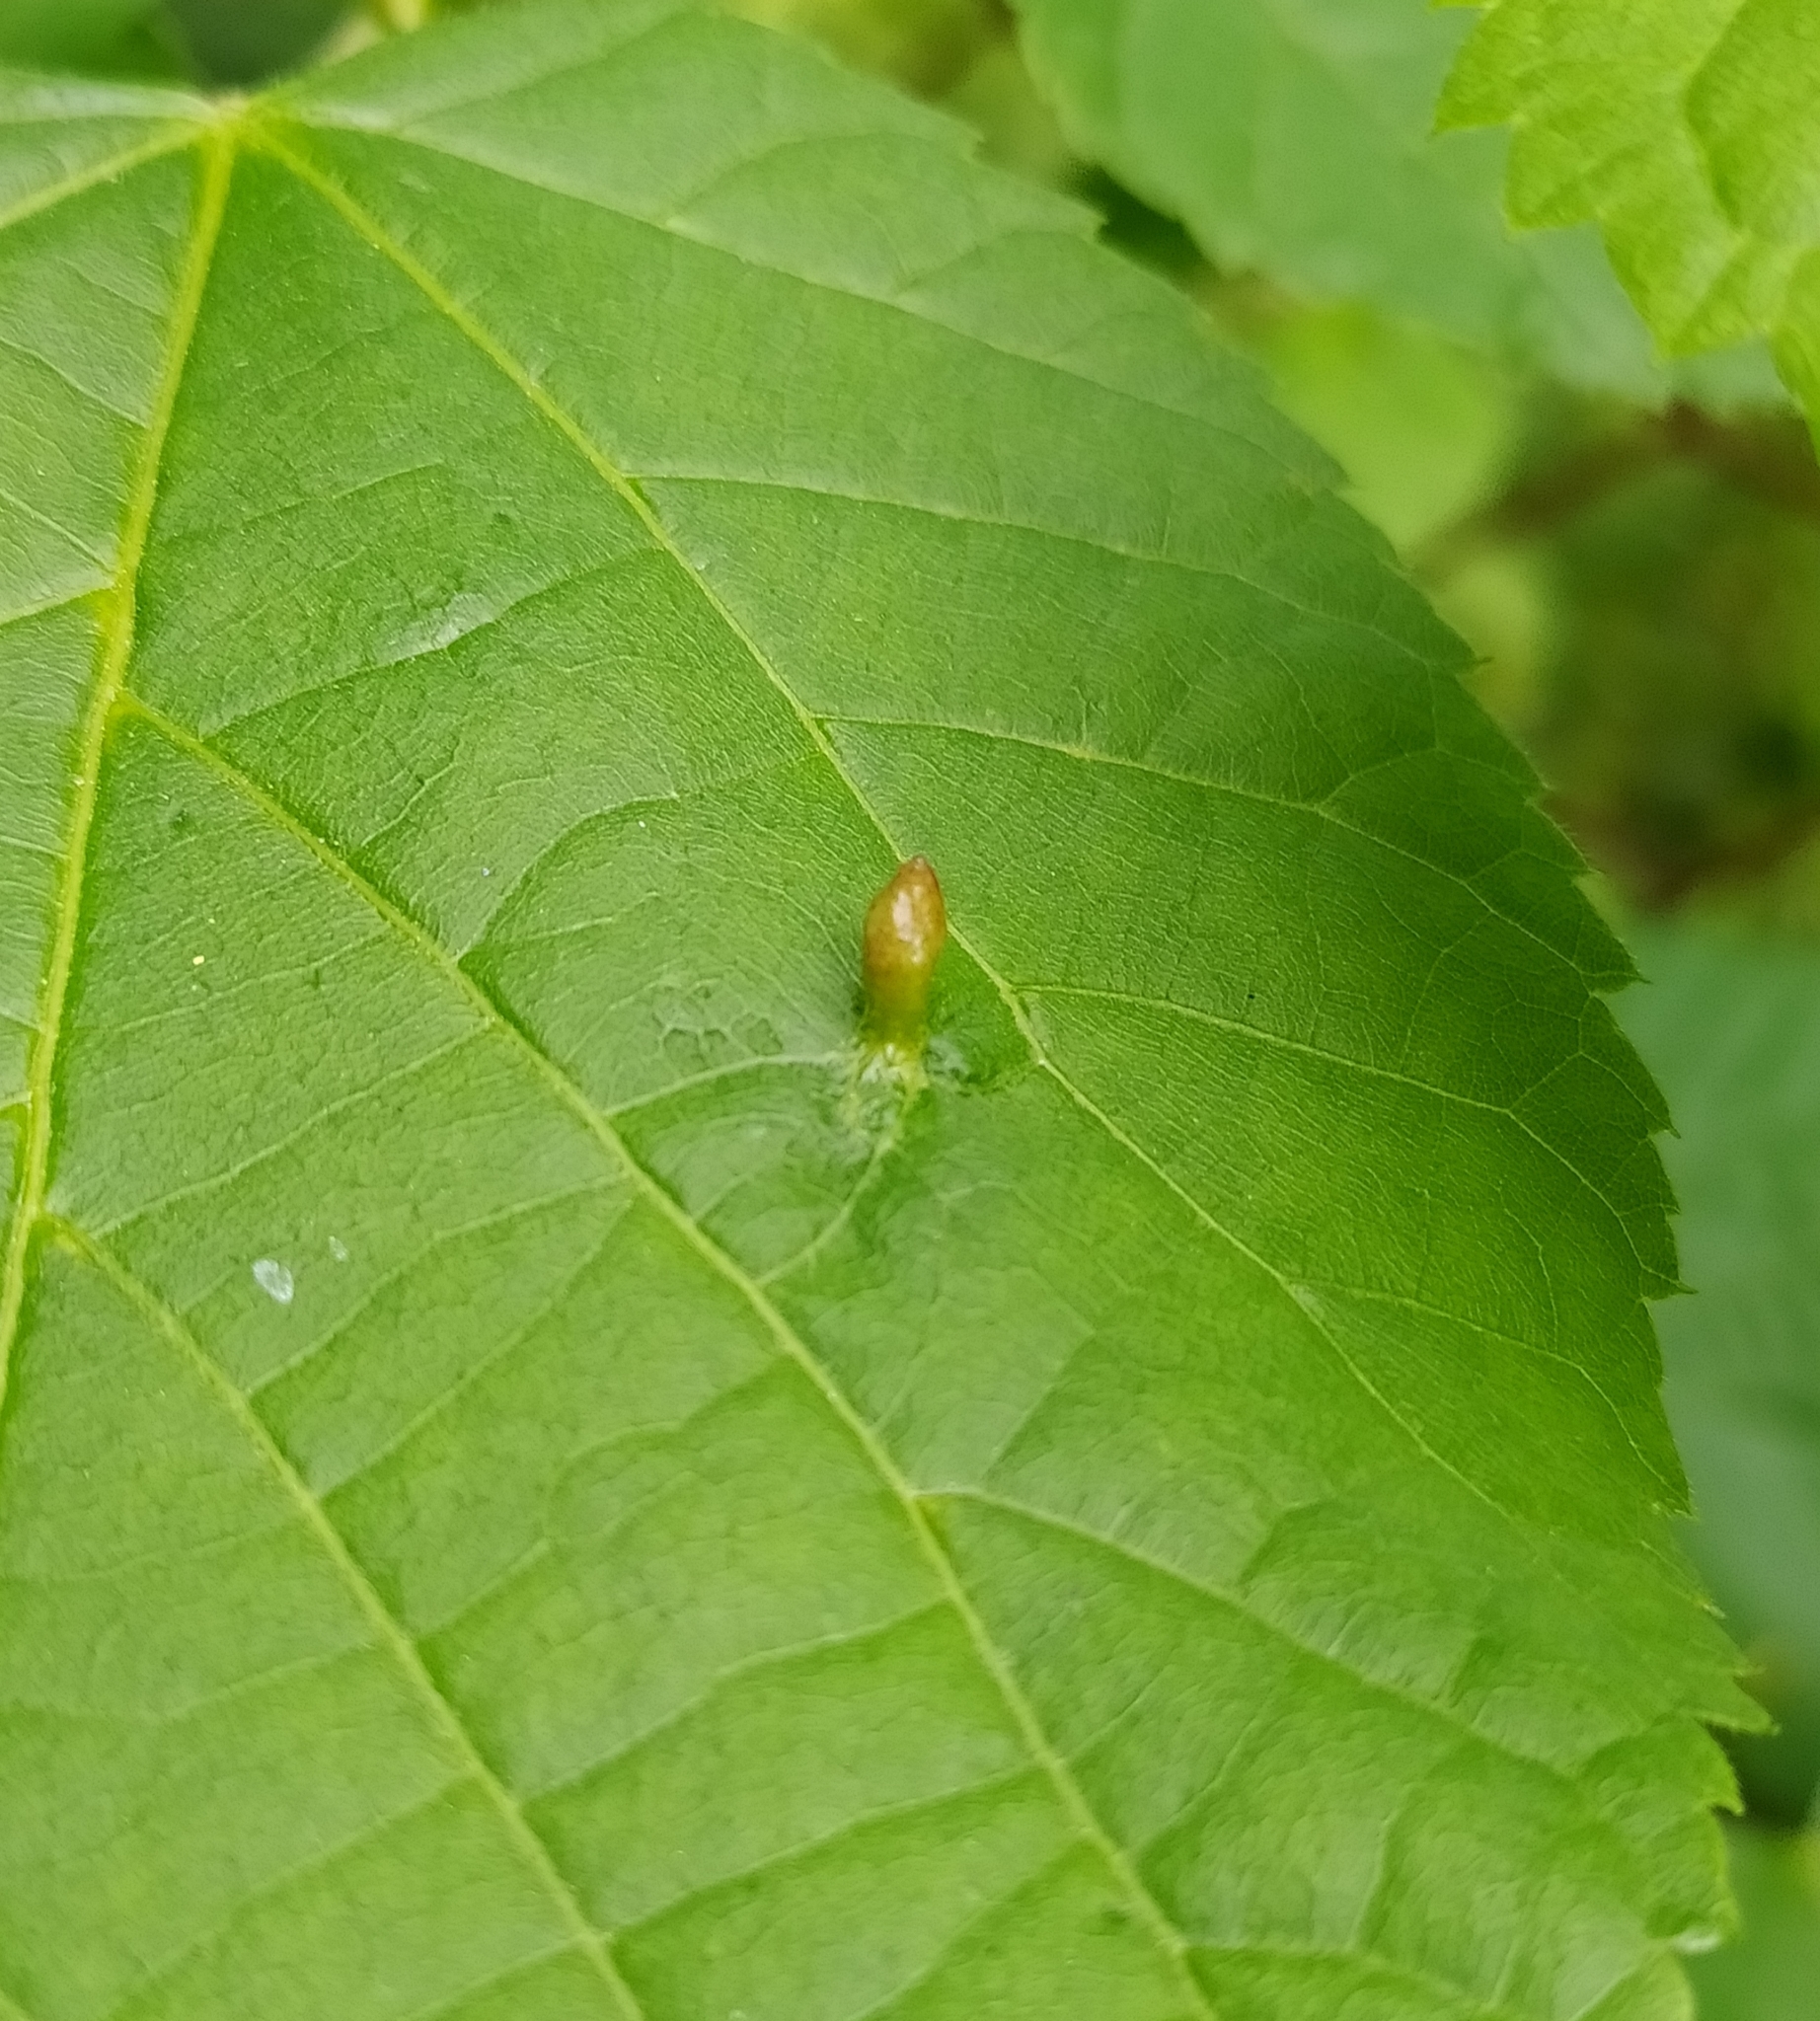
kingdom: Animalia
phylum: Arthropoda
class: Arachnida
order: Trombidiformes
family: Eriophyidae
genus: Eriophyes
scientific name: Eriophyes tiliae
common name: Red nail gall mite
